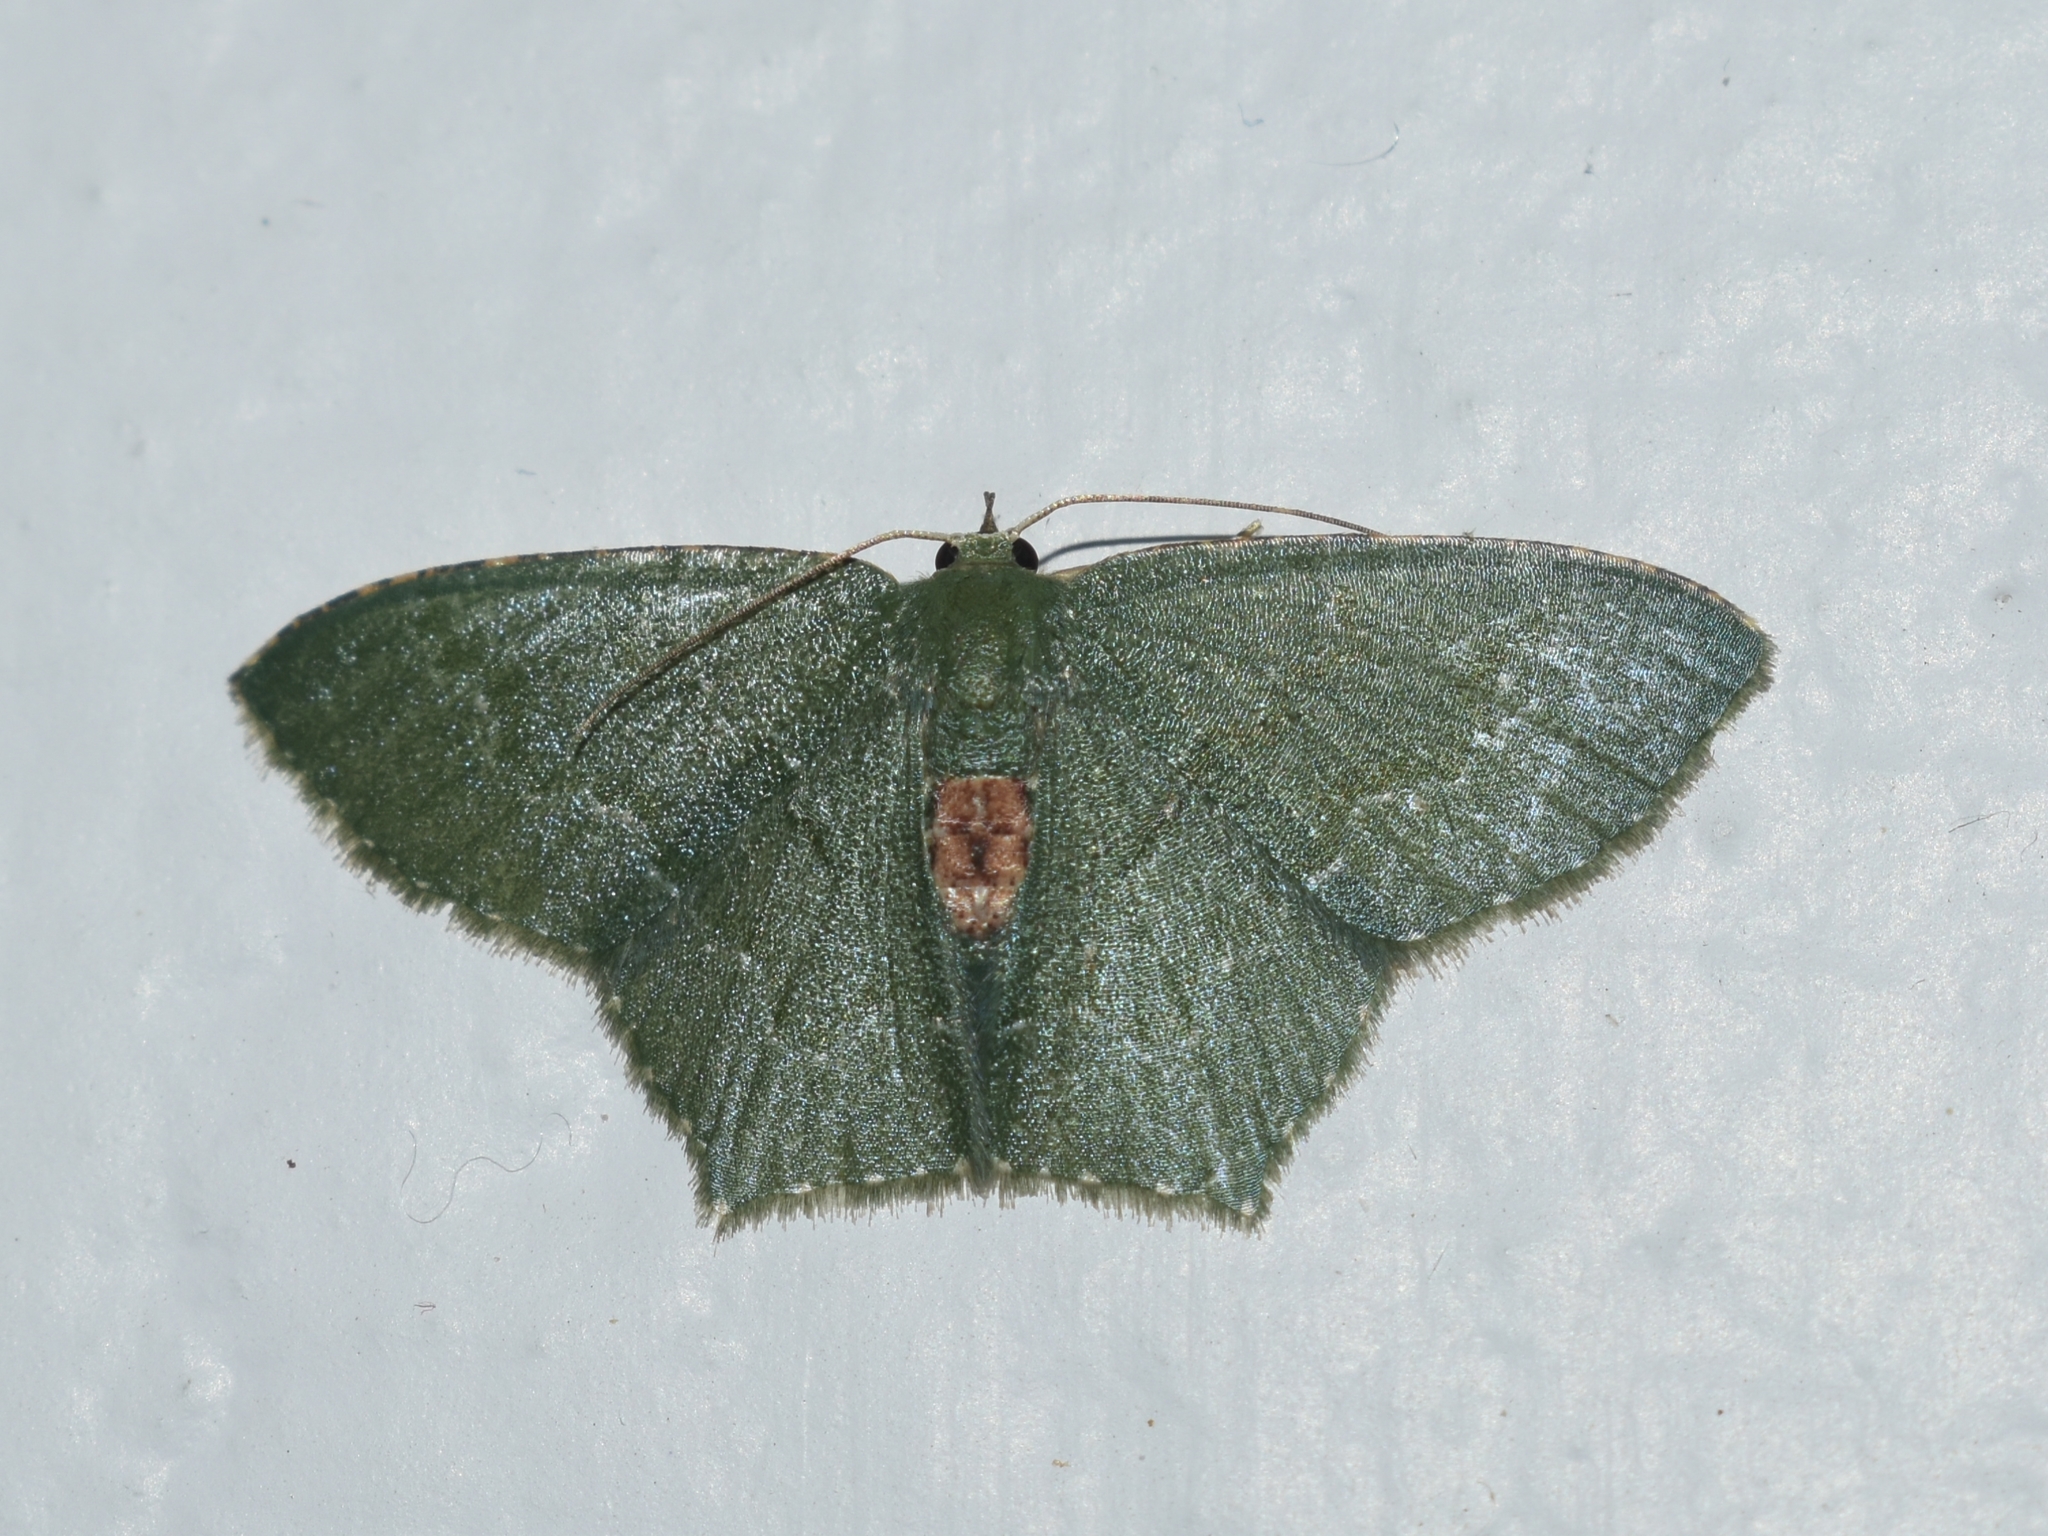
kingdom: Animalia
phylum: Arthropoda
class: Insecta
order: Lepidoptera
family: Geometridae
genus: Hemithea
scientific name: Hemithea tritonaria
